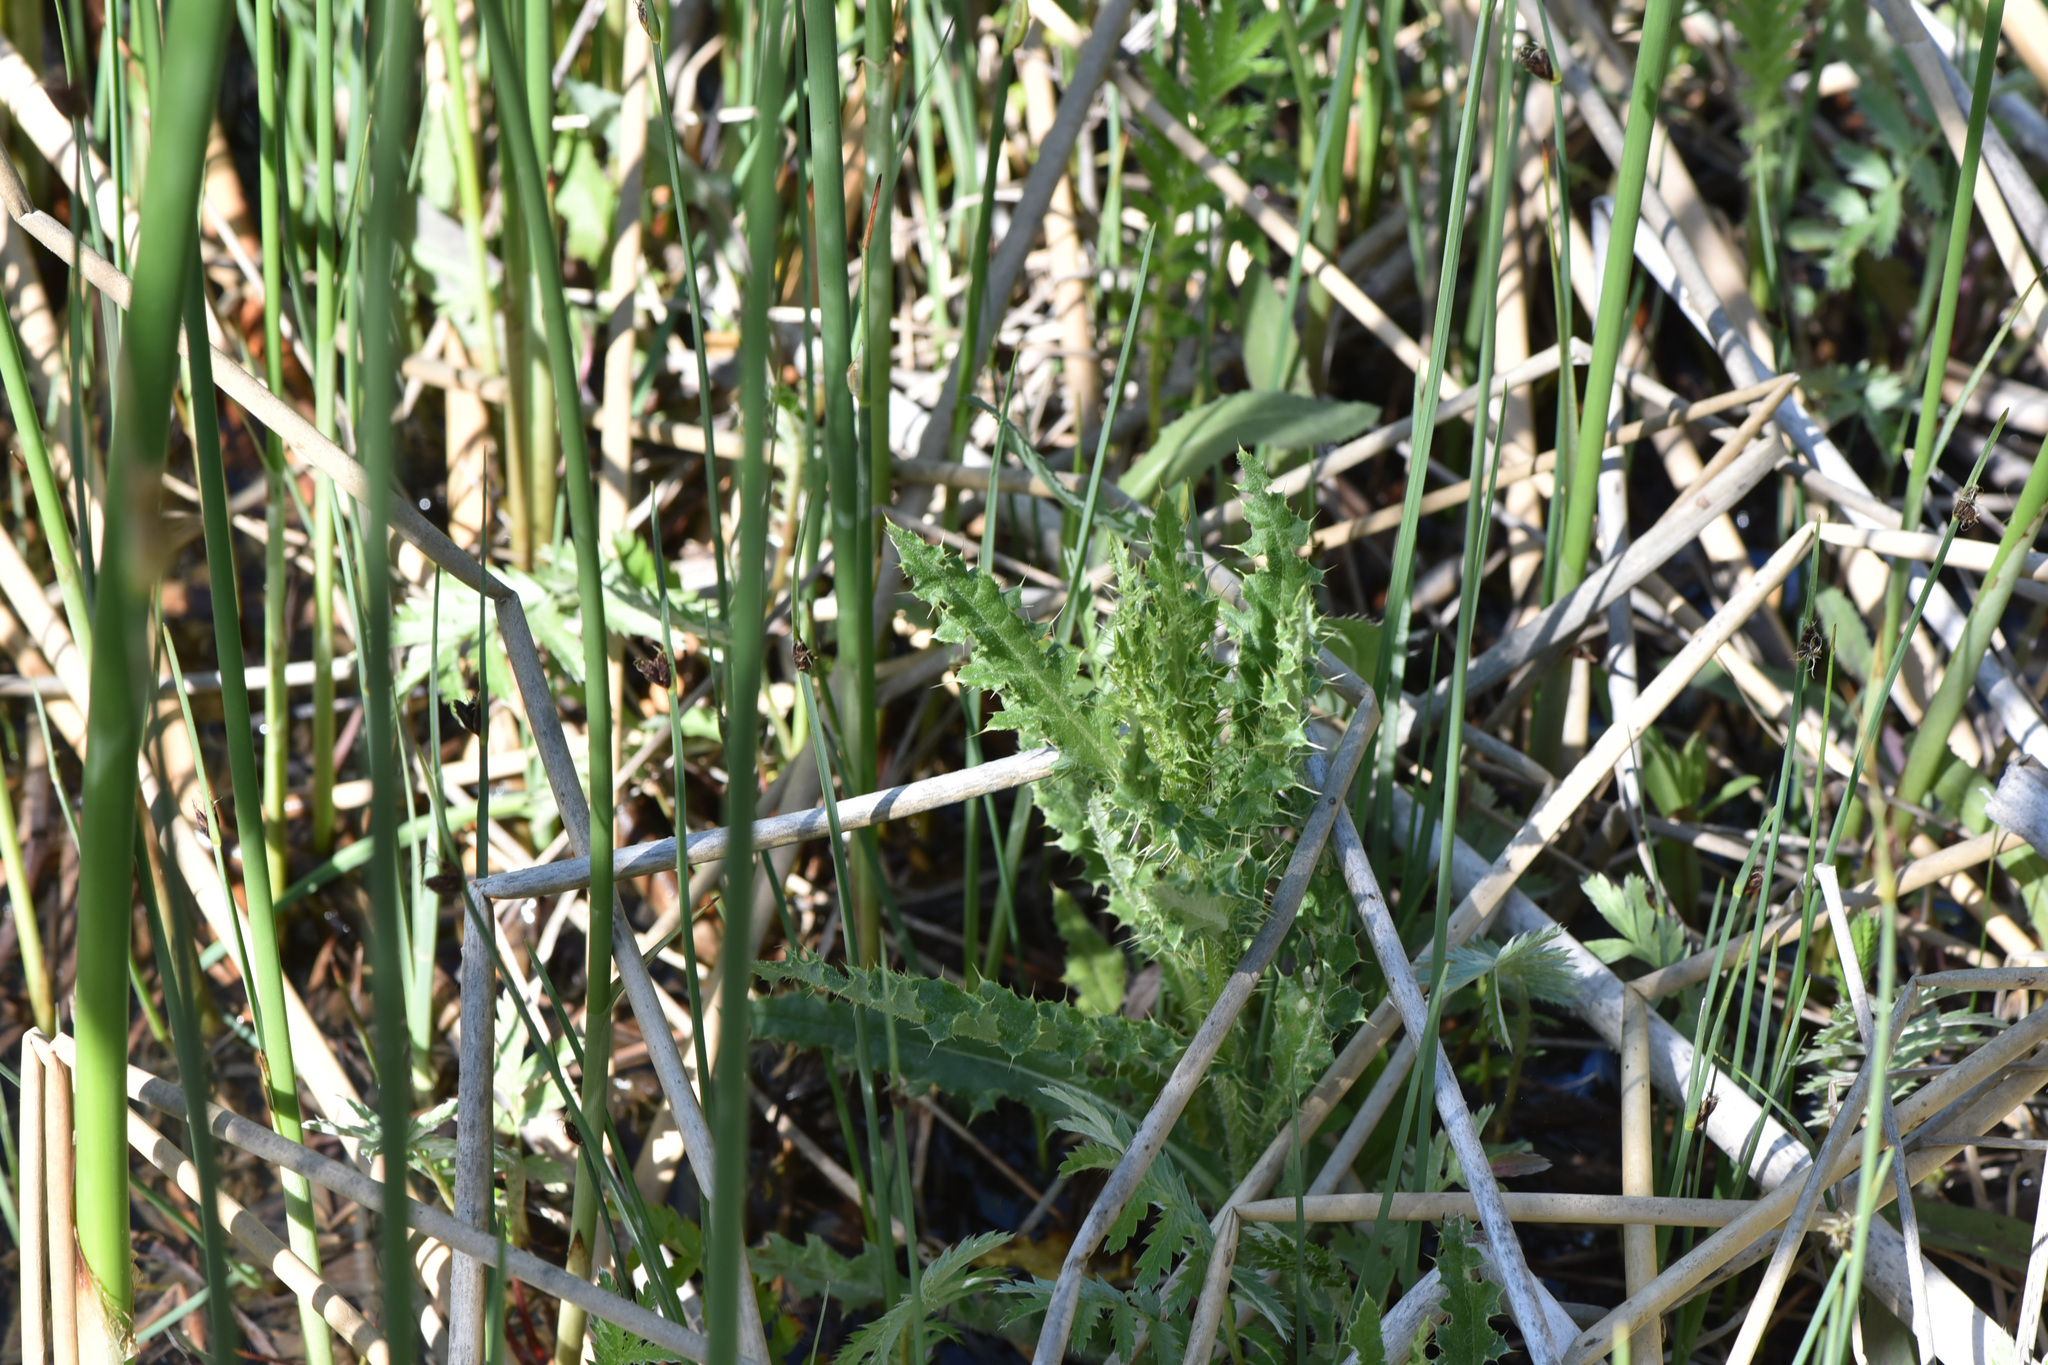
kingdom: Plantae
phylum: Tracheophyta
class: Magnoliopsida
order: Asterales
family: Asteraceae
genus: Cirsium
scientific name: Cirsium arvense
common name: Creeping thistle
